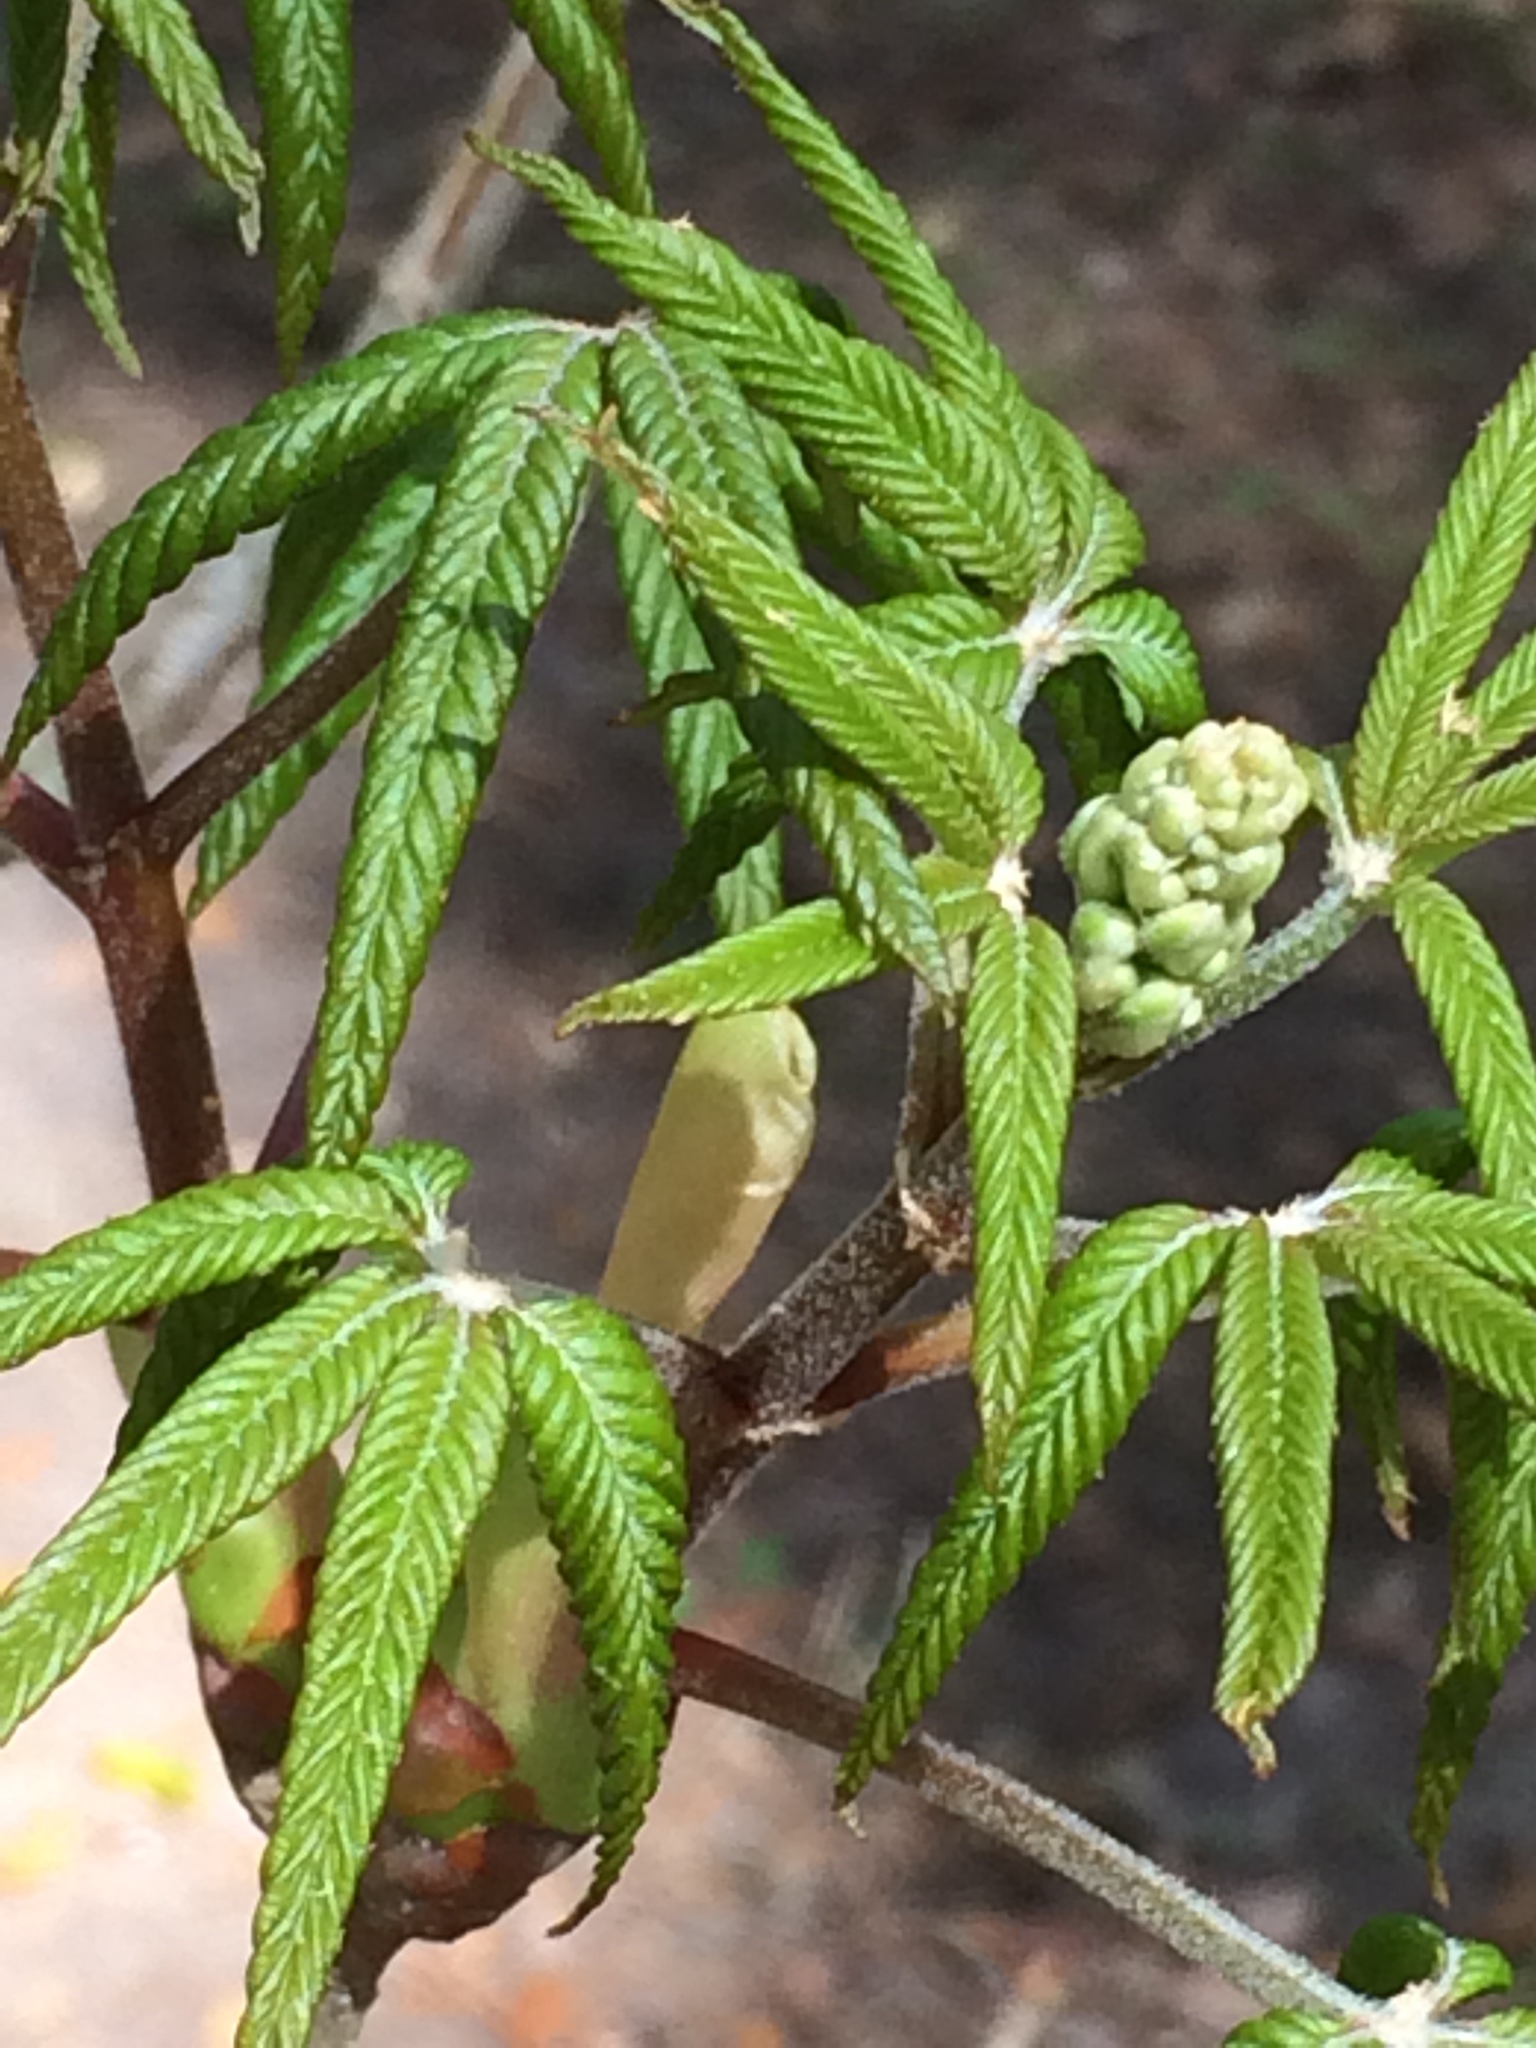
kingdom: Plantae
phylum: Tracheophyta
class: Magnoliopsida
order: Sapindales
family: Sapindaceae
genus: Aesculus
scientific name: Aesculus pavia
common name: Red buckeye
